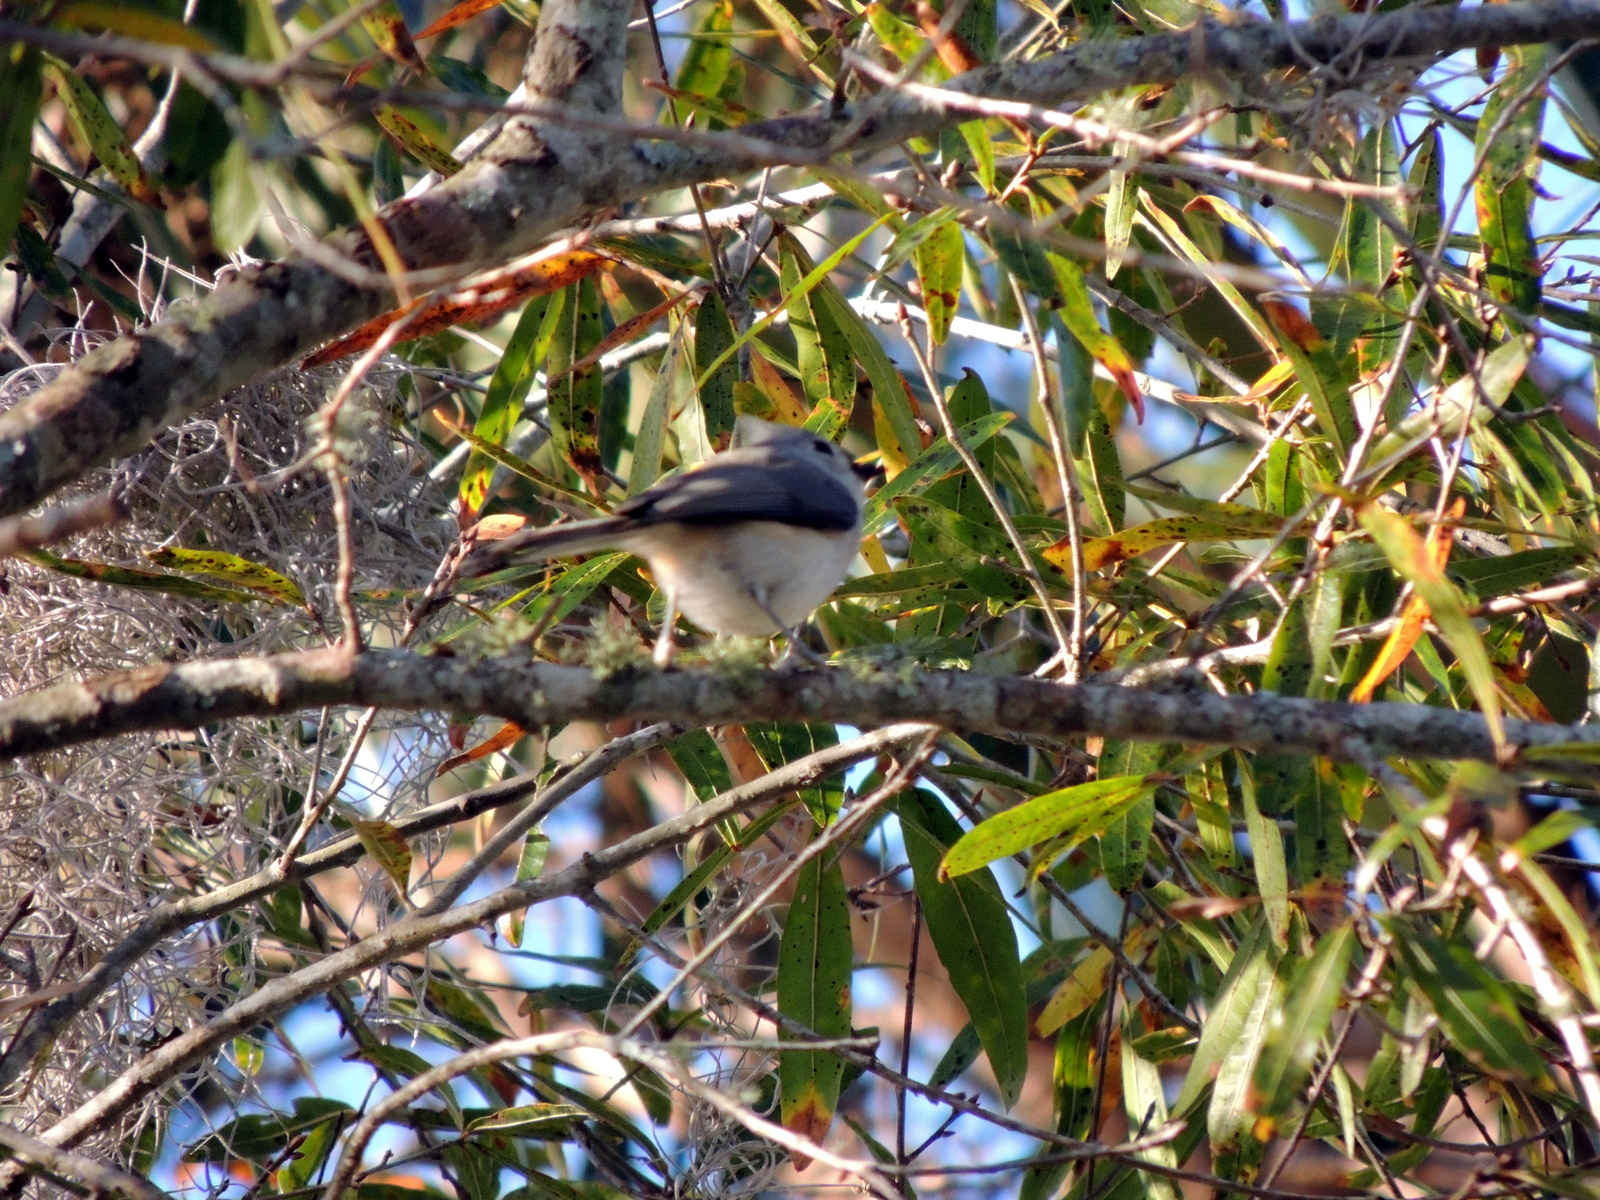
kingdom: Animalia
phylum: Chordata
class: Aves
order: Passeriformes
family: Paridae
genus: Baeolophus
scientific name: Baeolophus bicolor
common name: Tufted titmouse
